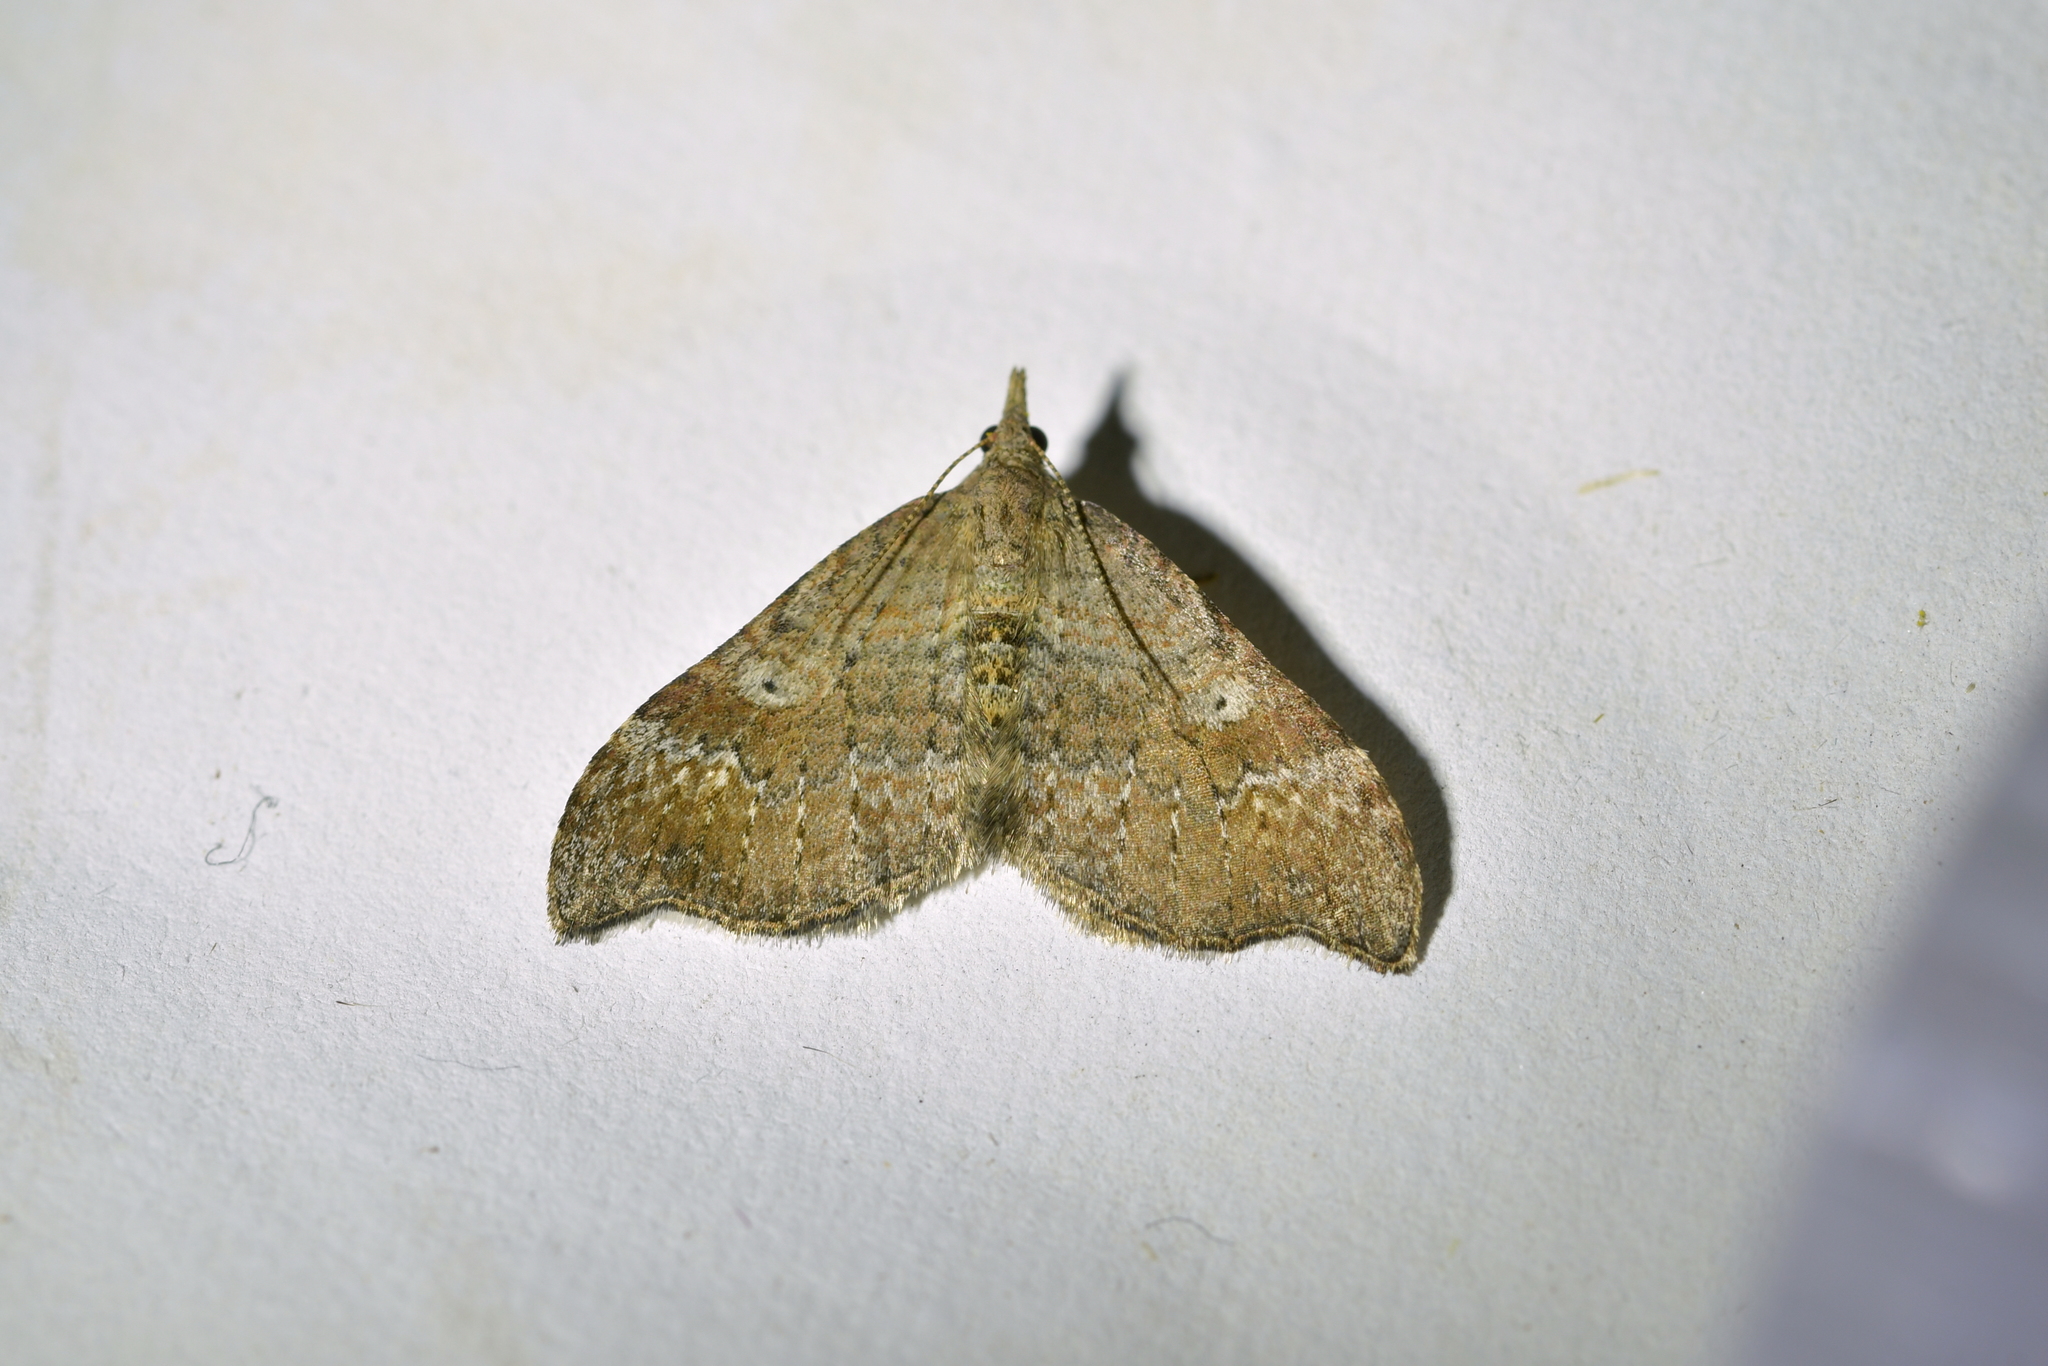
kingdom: Animalia
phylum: Arthropoda
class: Insecta
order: Lepidoptera
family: Geometridae
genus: Homodotis
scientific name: Homodotis megaspilata
